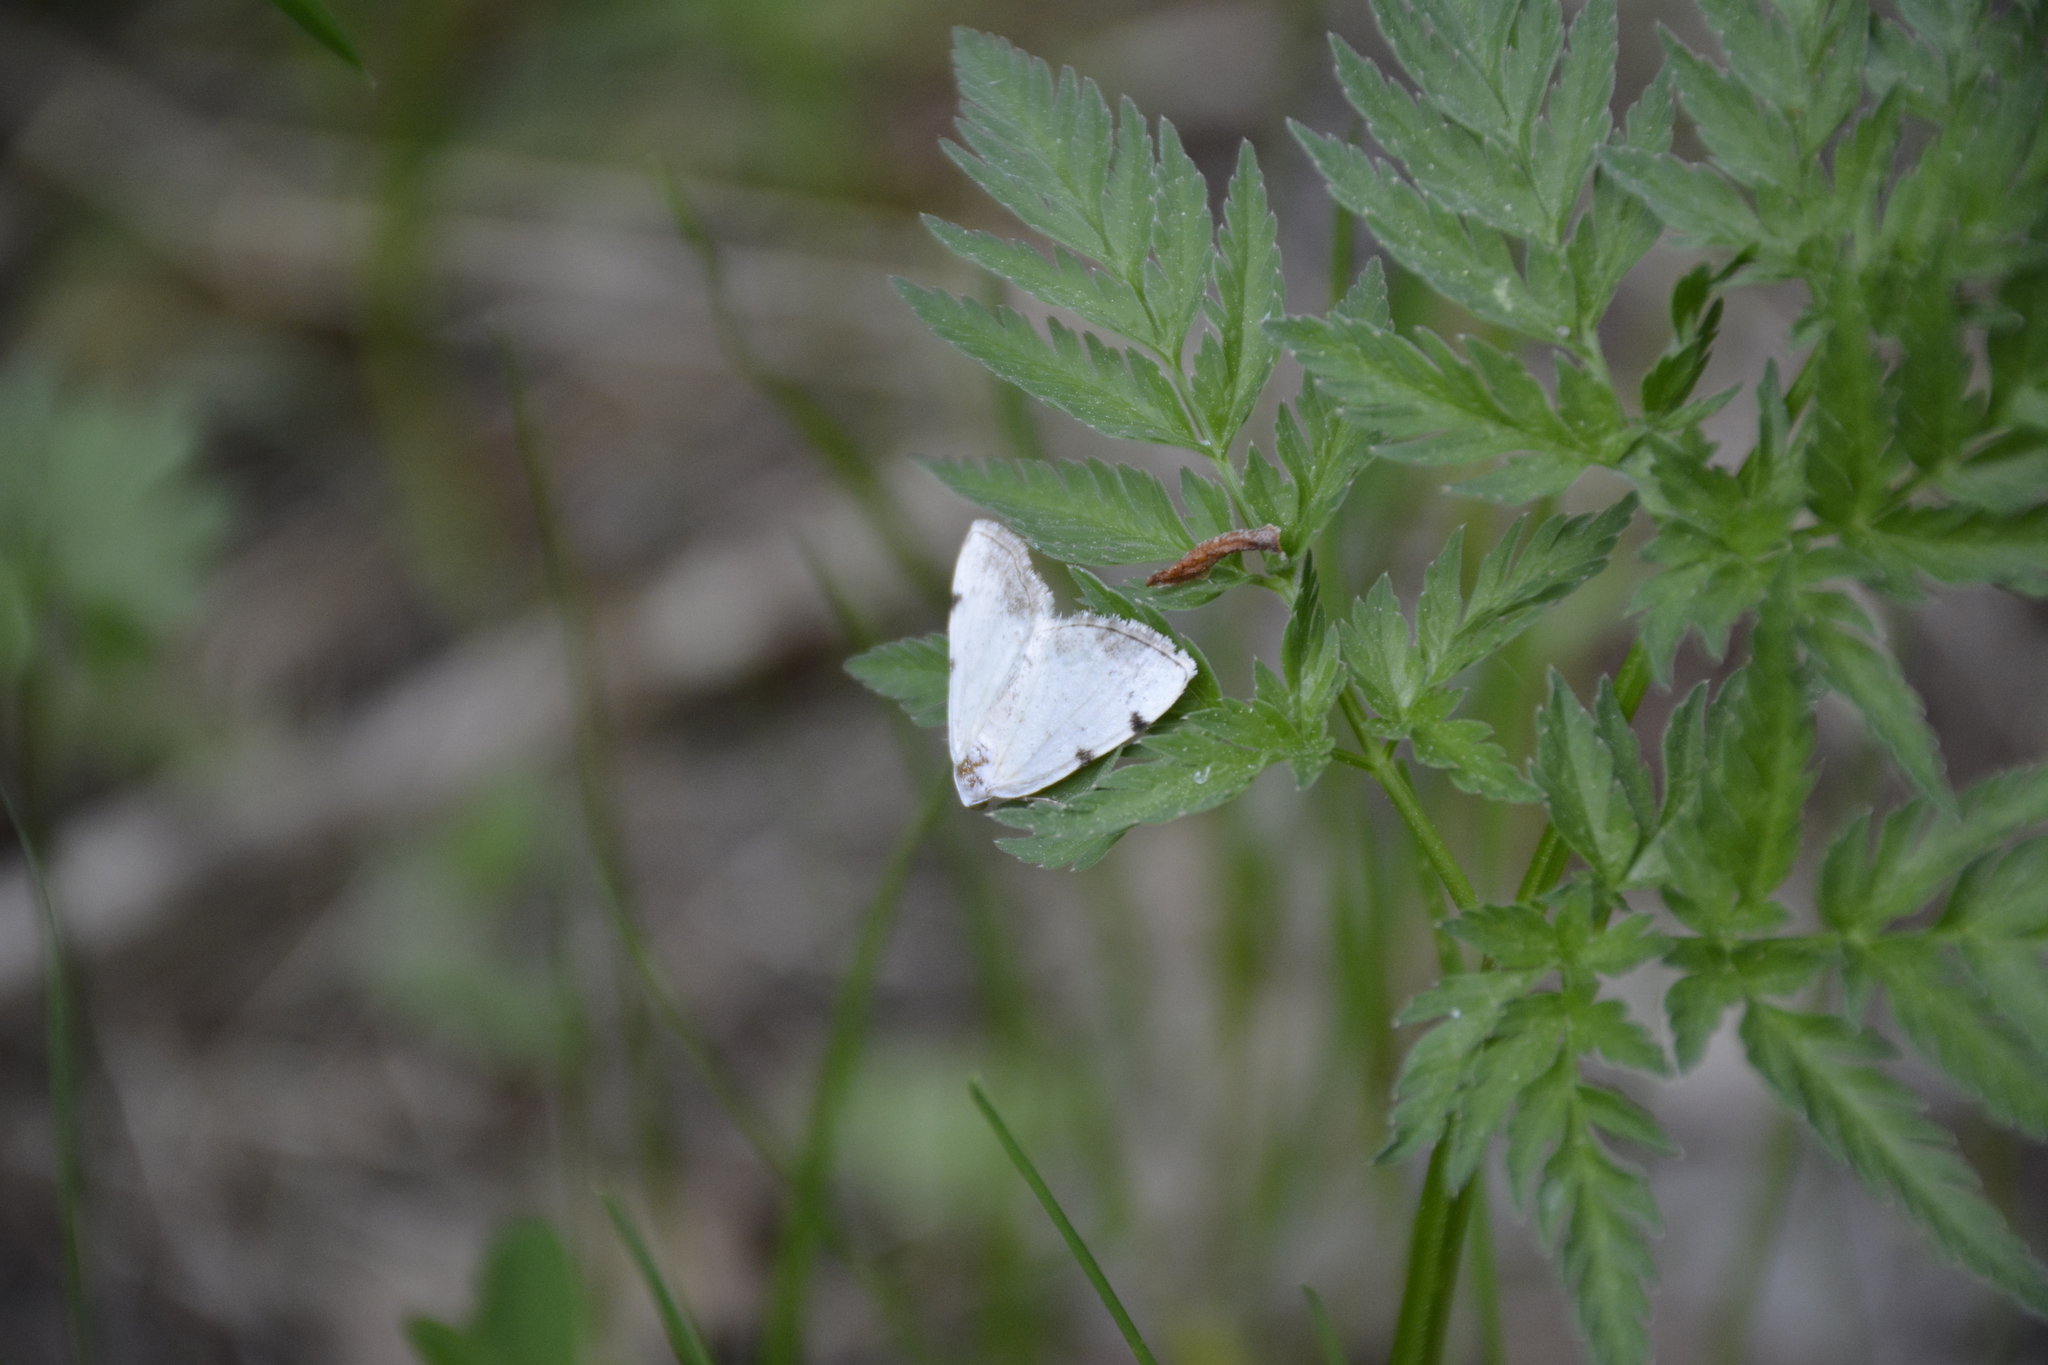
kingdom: Animalia
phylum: Arthropoda
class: Insecta
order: Lepidoptera
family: Geometridae
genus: Lomographa
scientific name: Lomographa bimaculata
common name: White-pinion spotted
